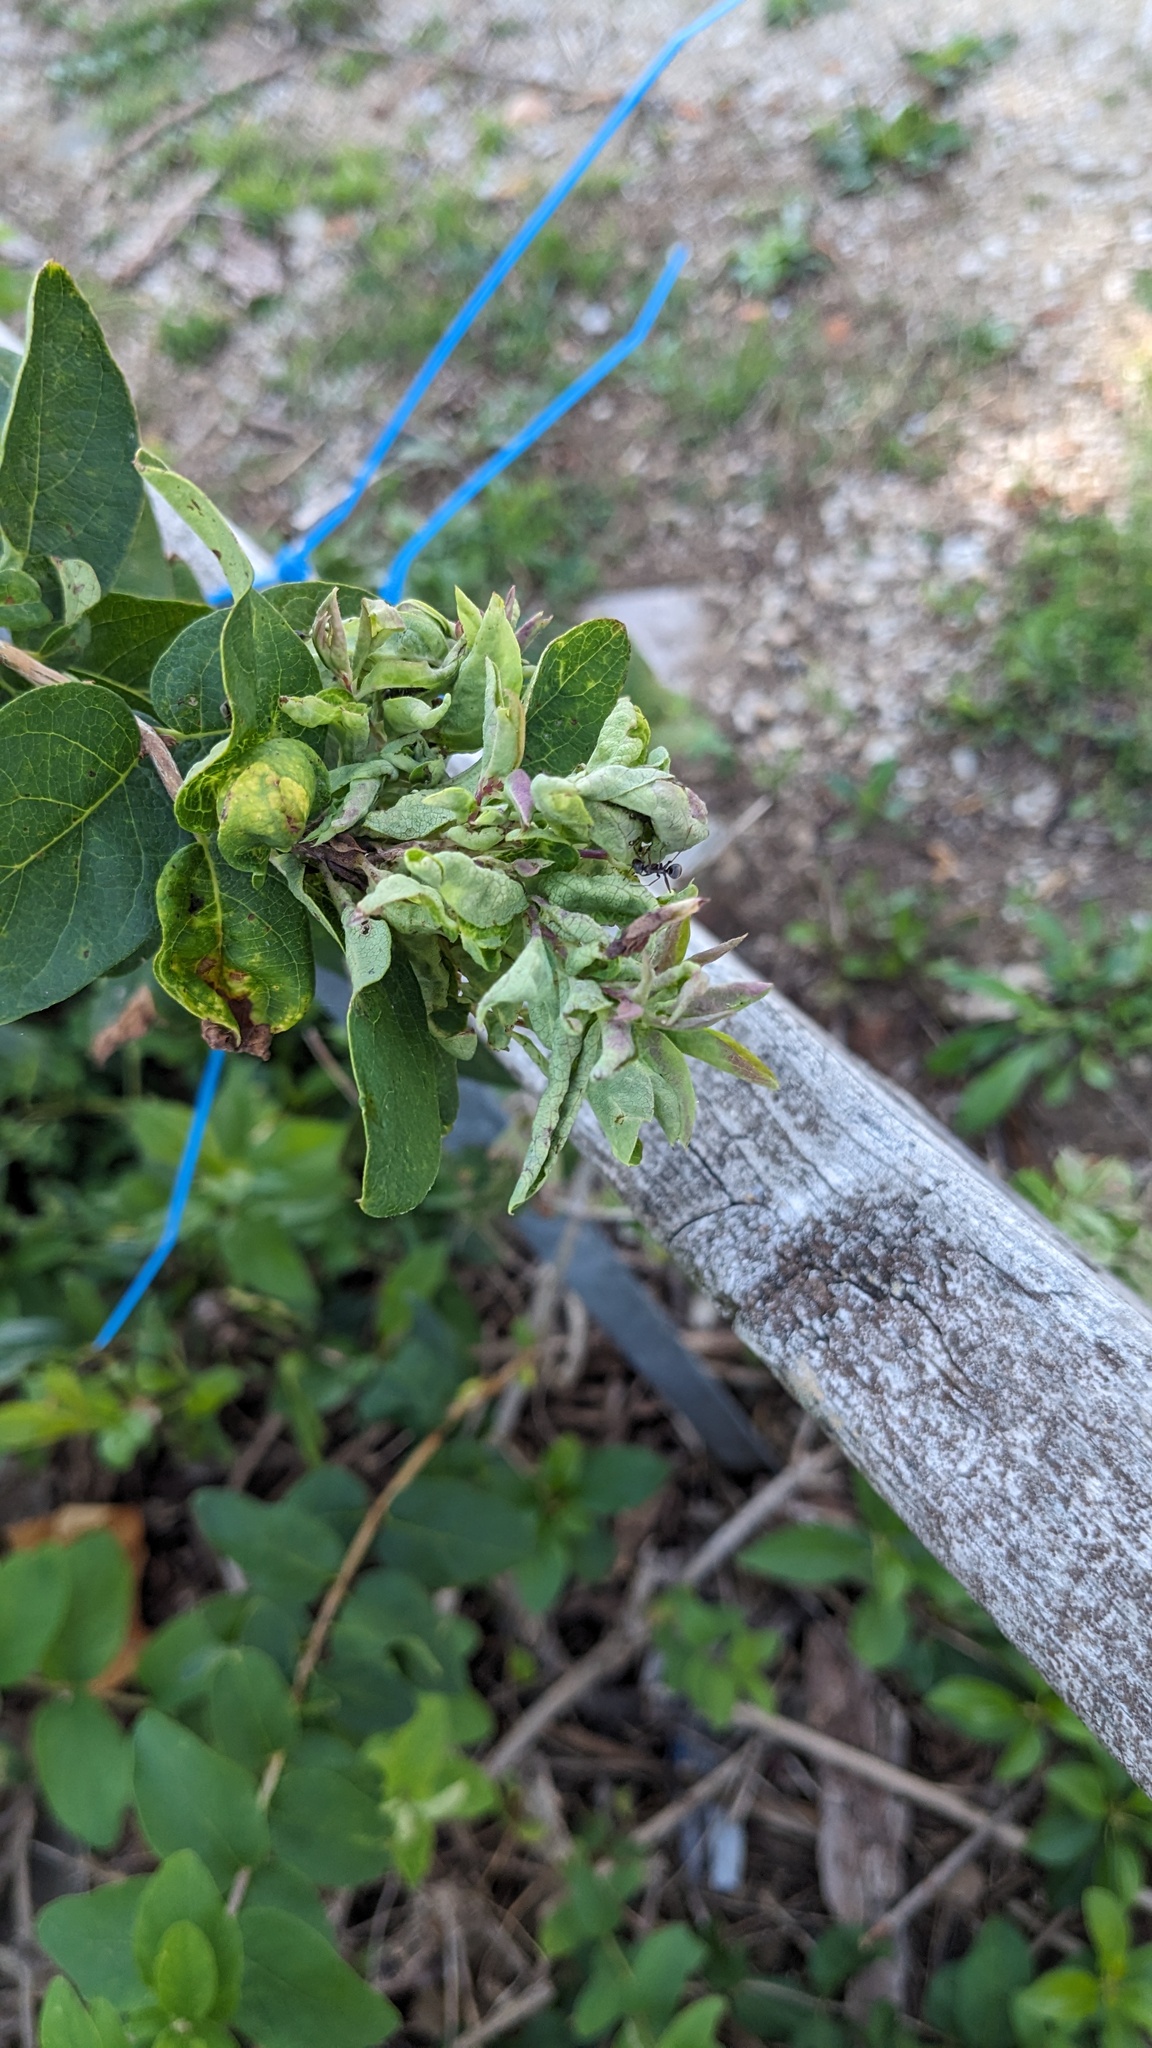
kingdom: Animalia
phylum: Arthropoda
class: Insecta
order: Hemiptera
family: Aphididae
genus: Hyadaphis
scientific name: Hyadaphis tataricae
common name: Honeysuckle witches' broom aphid
